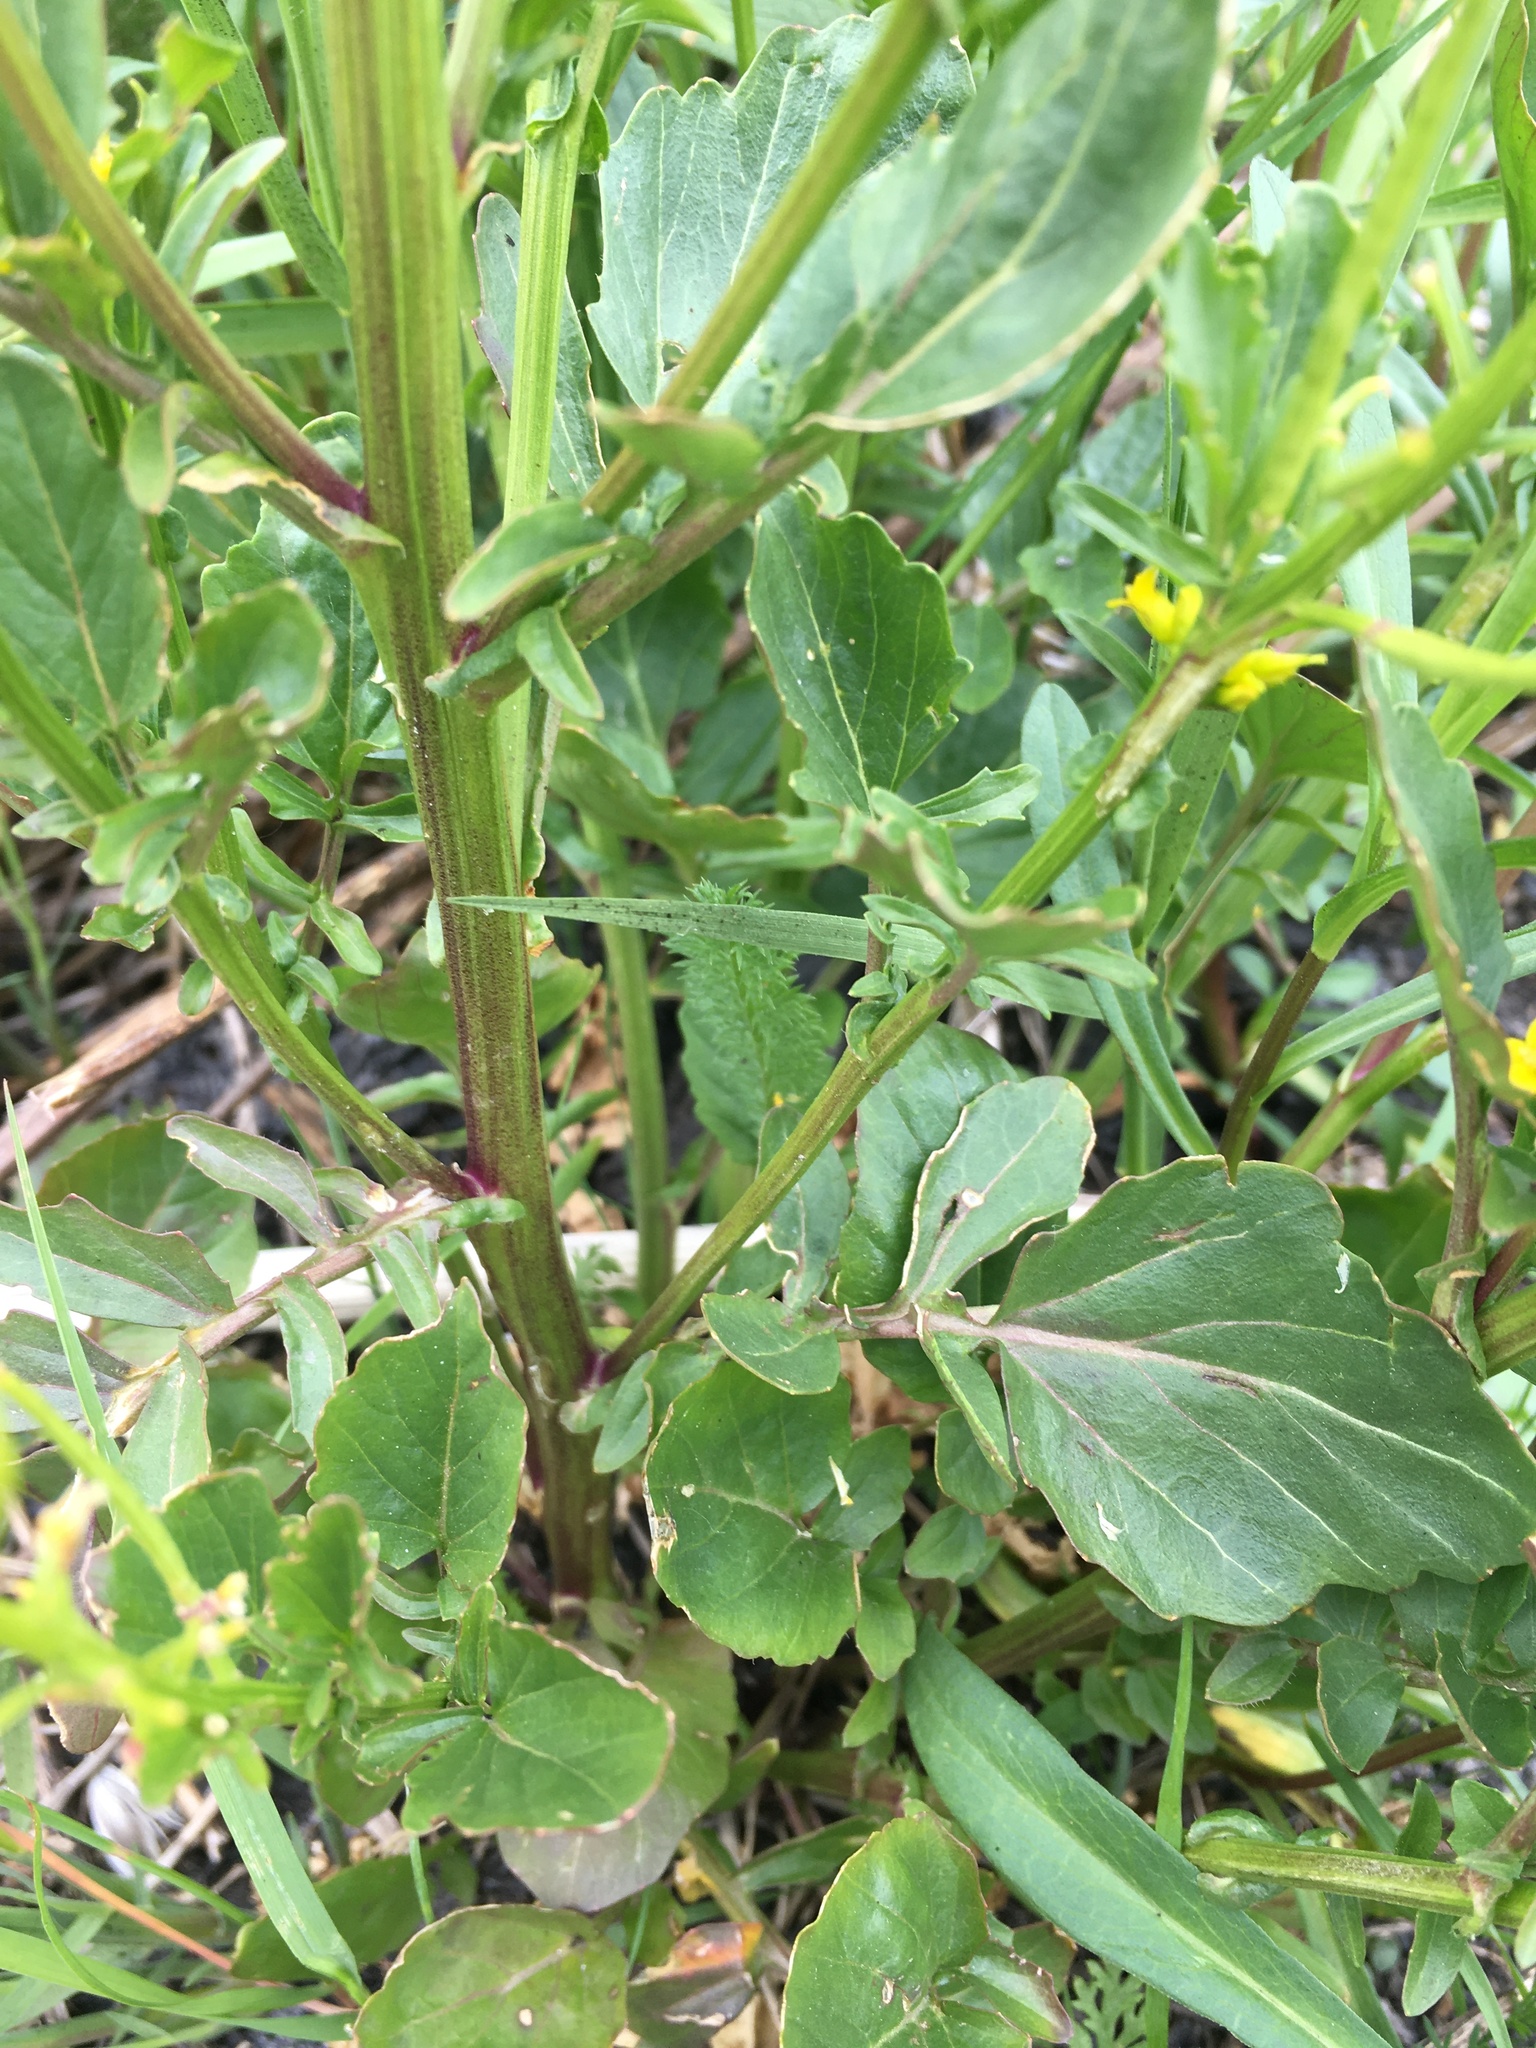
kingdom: Plantae
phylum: Tracheophyta
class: Magnoliopsida
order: Brassicales
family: Brassicaceae
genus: Barbarea
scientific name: Barbarea vulgaris
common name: Cressy-greens
